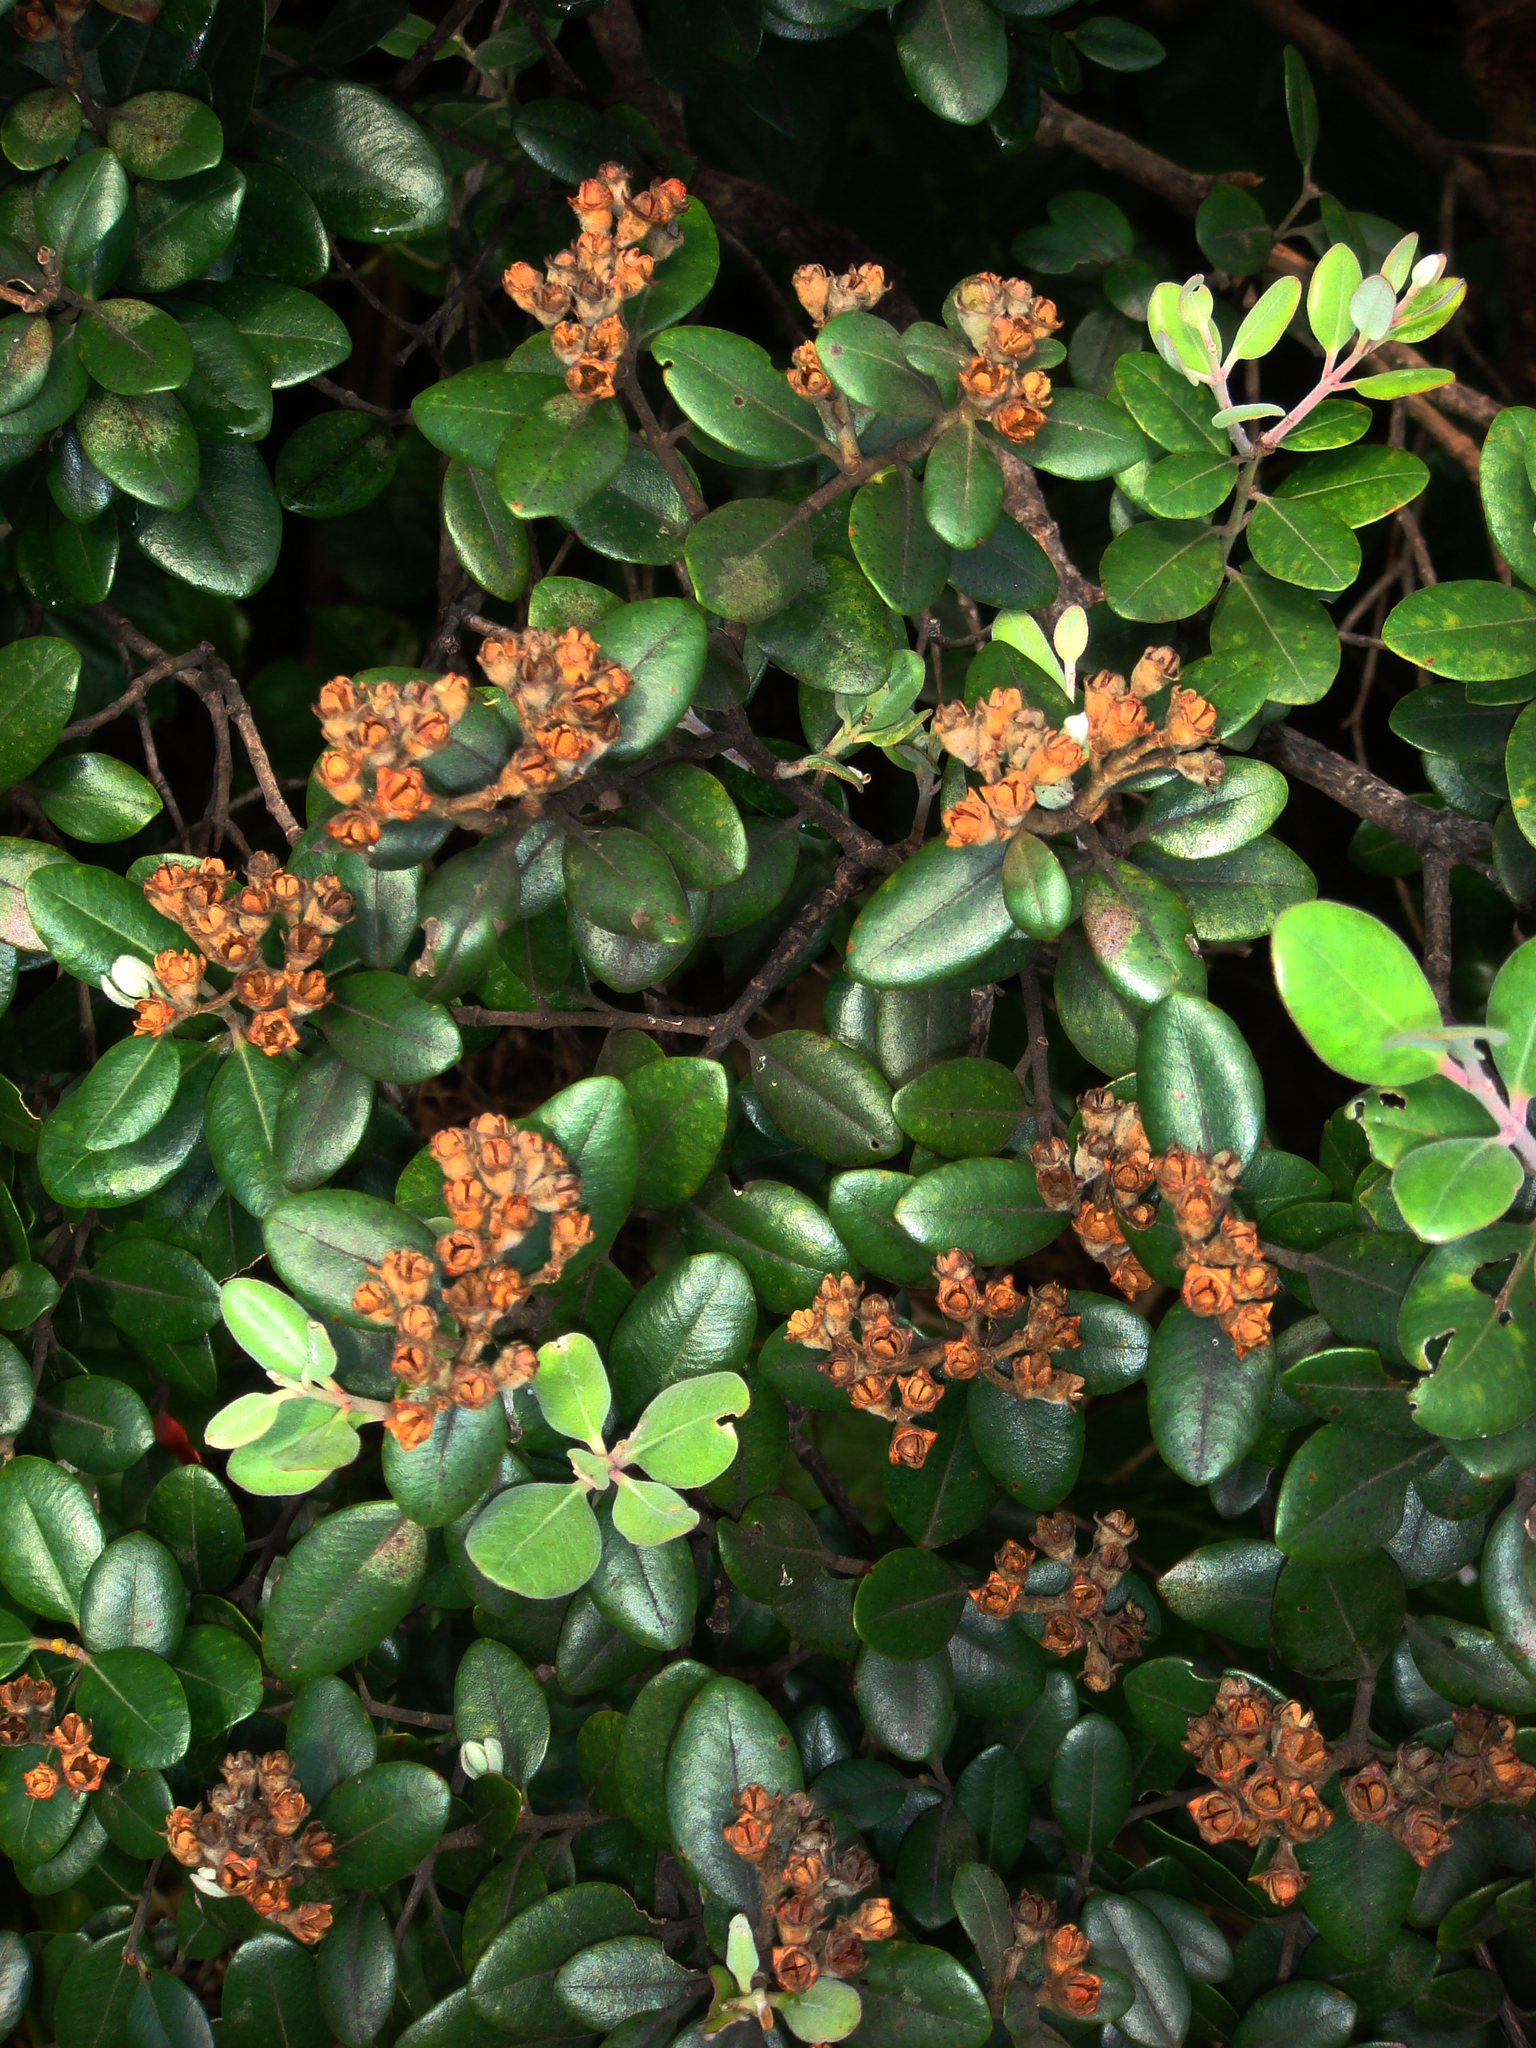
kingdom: Plantae
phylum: Tracheophyta
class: Magnoliopsida
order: Myrtales
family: Myrtaceae
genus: Metrosideros
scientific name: Metrosideros kermadecensis
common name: Pohutukawa
